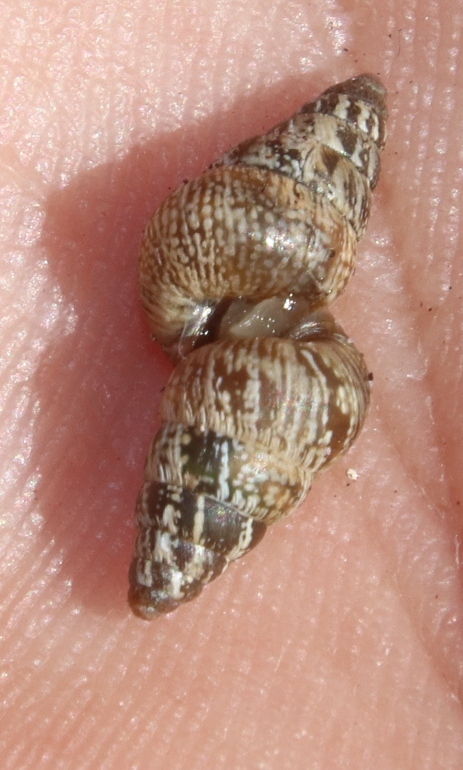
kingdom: Animalia
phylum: Mollusca
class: Gastropoda
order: Stylommatophora
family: Geomitridae
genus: Cochlicella
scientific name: Cochlicella barbara
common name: Potbellied helicellid
